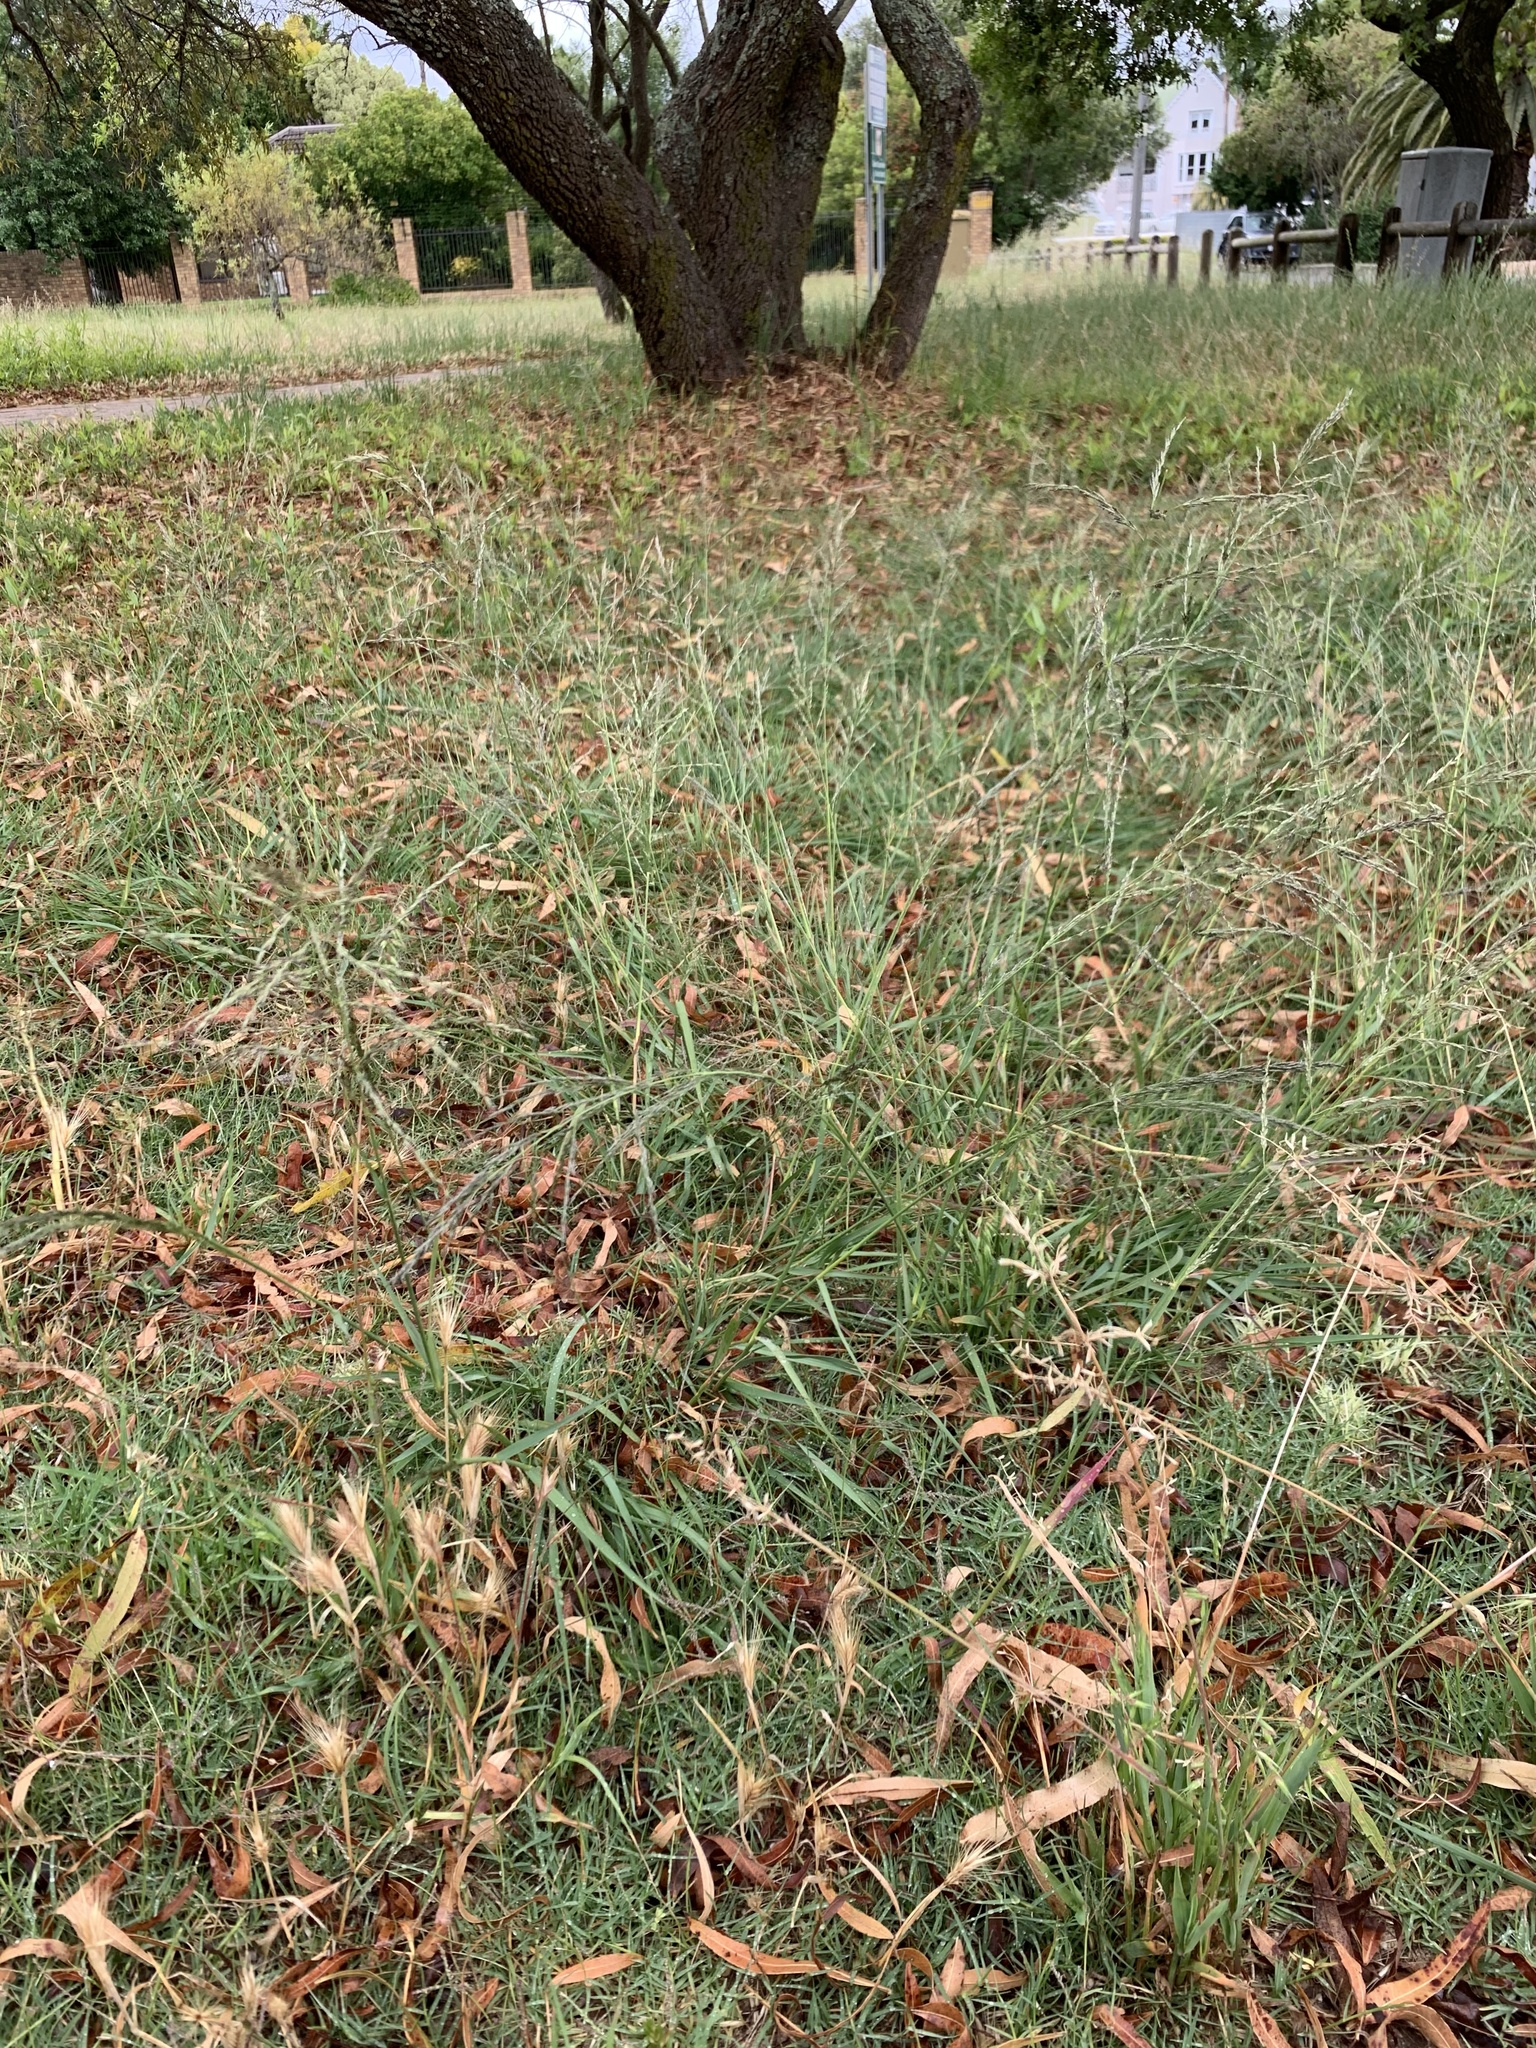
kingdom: Plantae
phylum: Tracheophyta
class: Liliopsida
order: Poales
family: Poaceae
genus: Eragrostis
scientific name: Eragrostis curvula
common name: African love-grass
